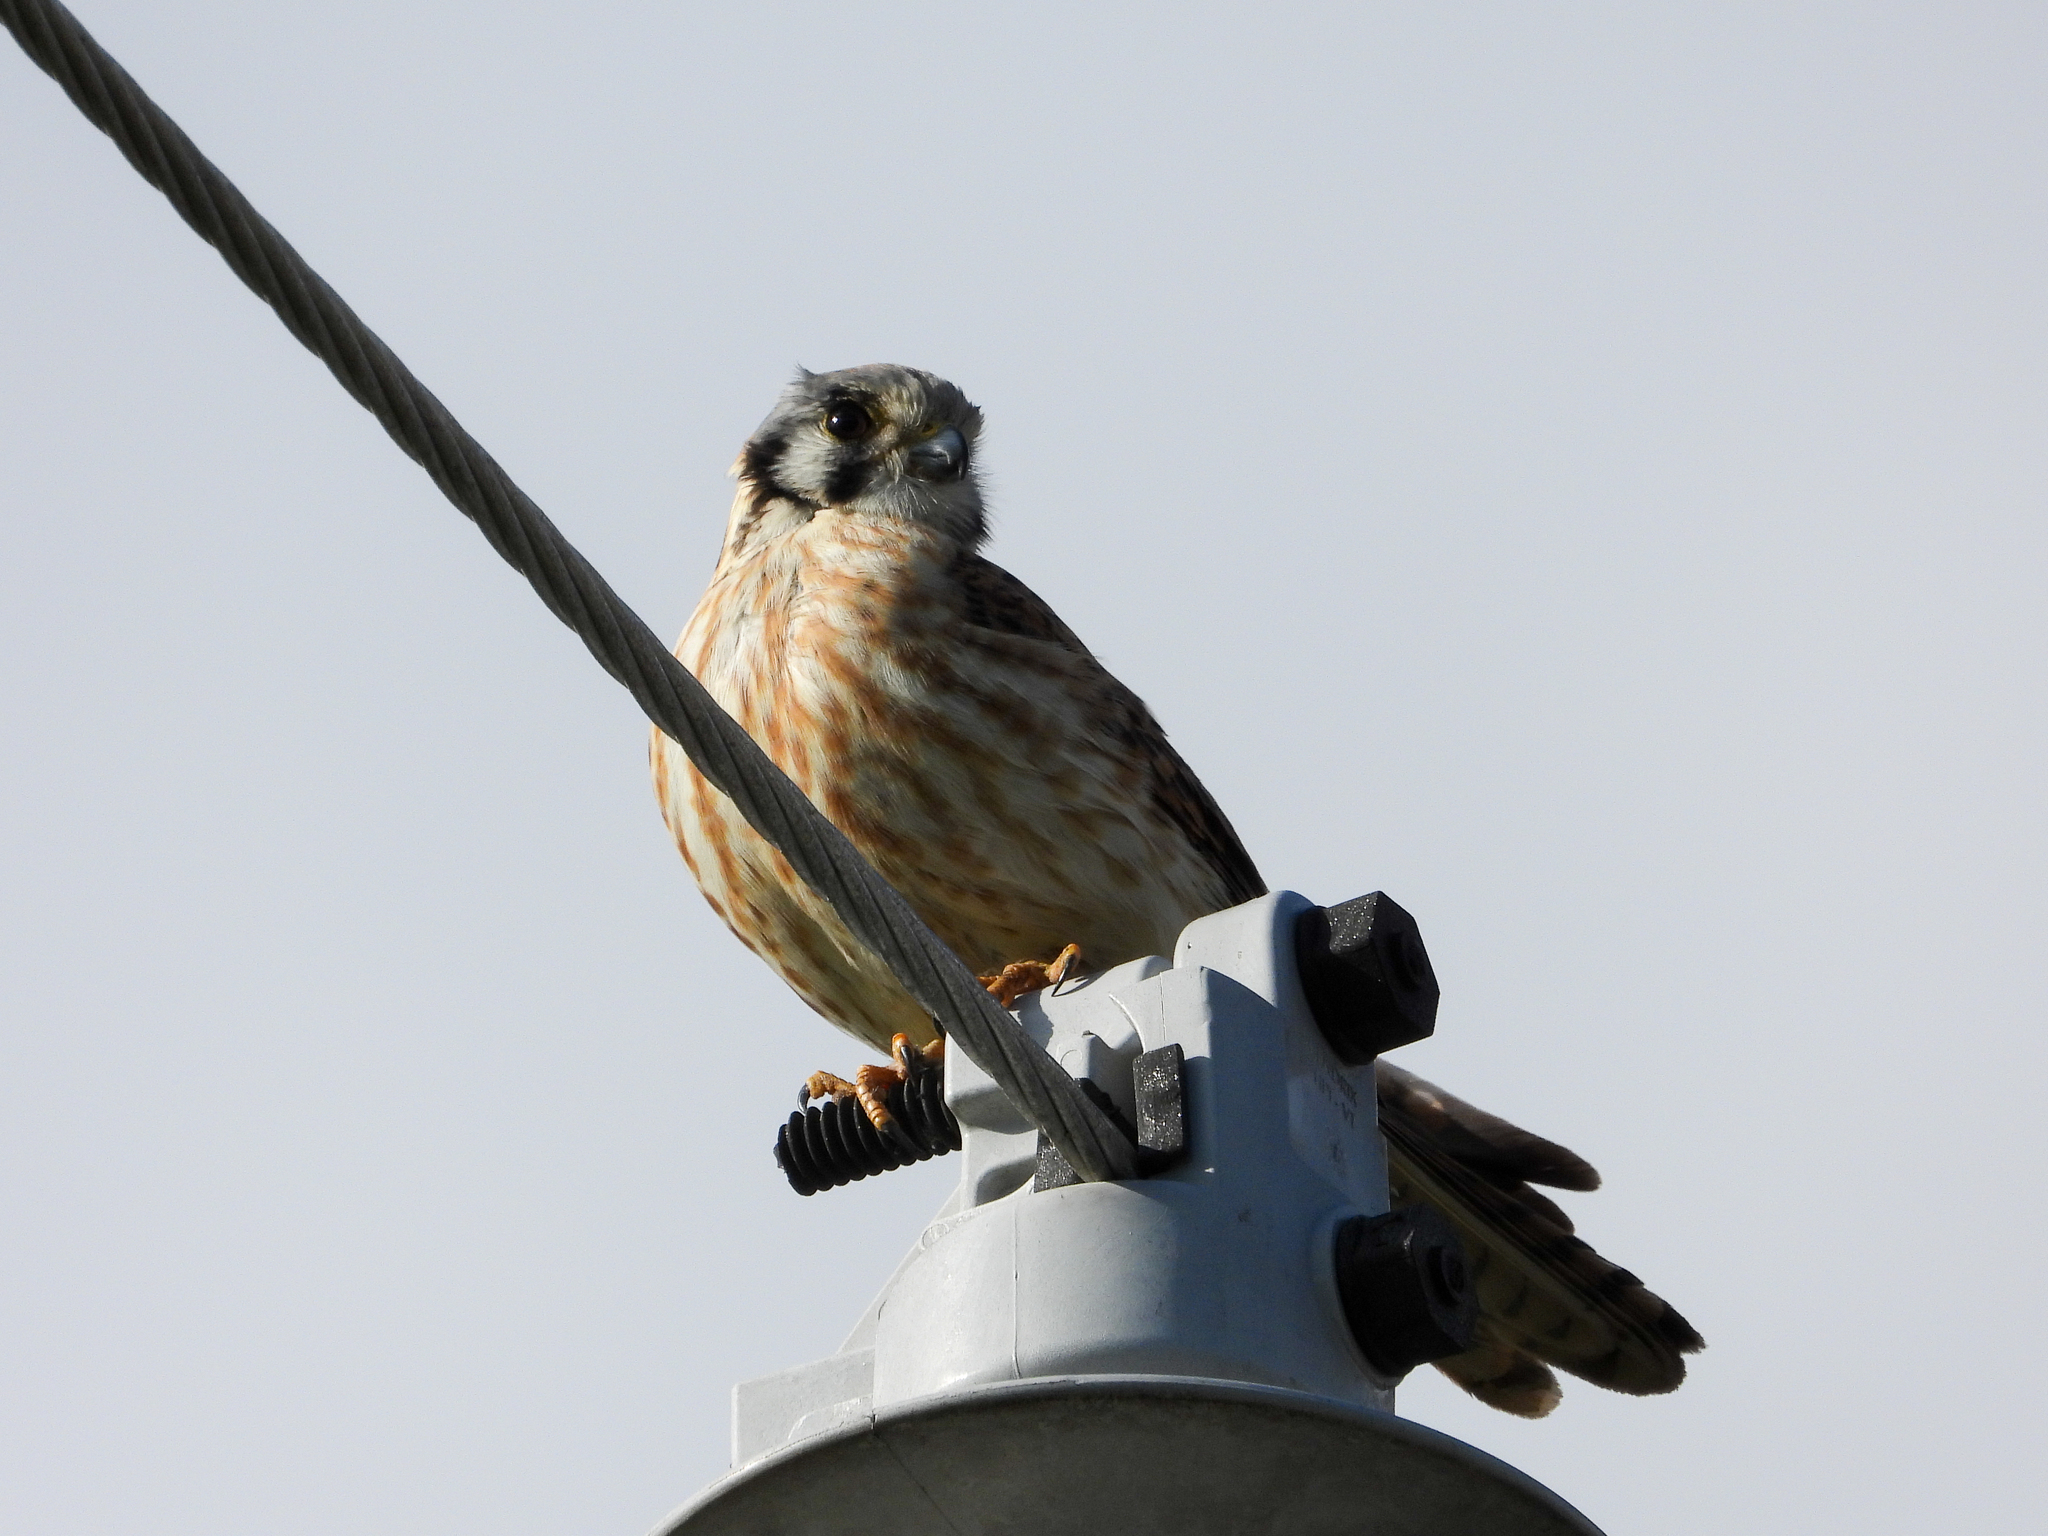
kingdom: Animalia
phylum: Chordata
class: Aves
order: Falconiformes
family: Falconidae
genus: Falco
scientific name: Falco sparverius
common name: American kestrel
